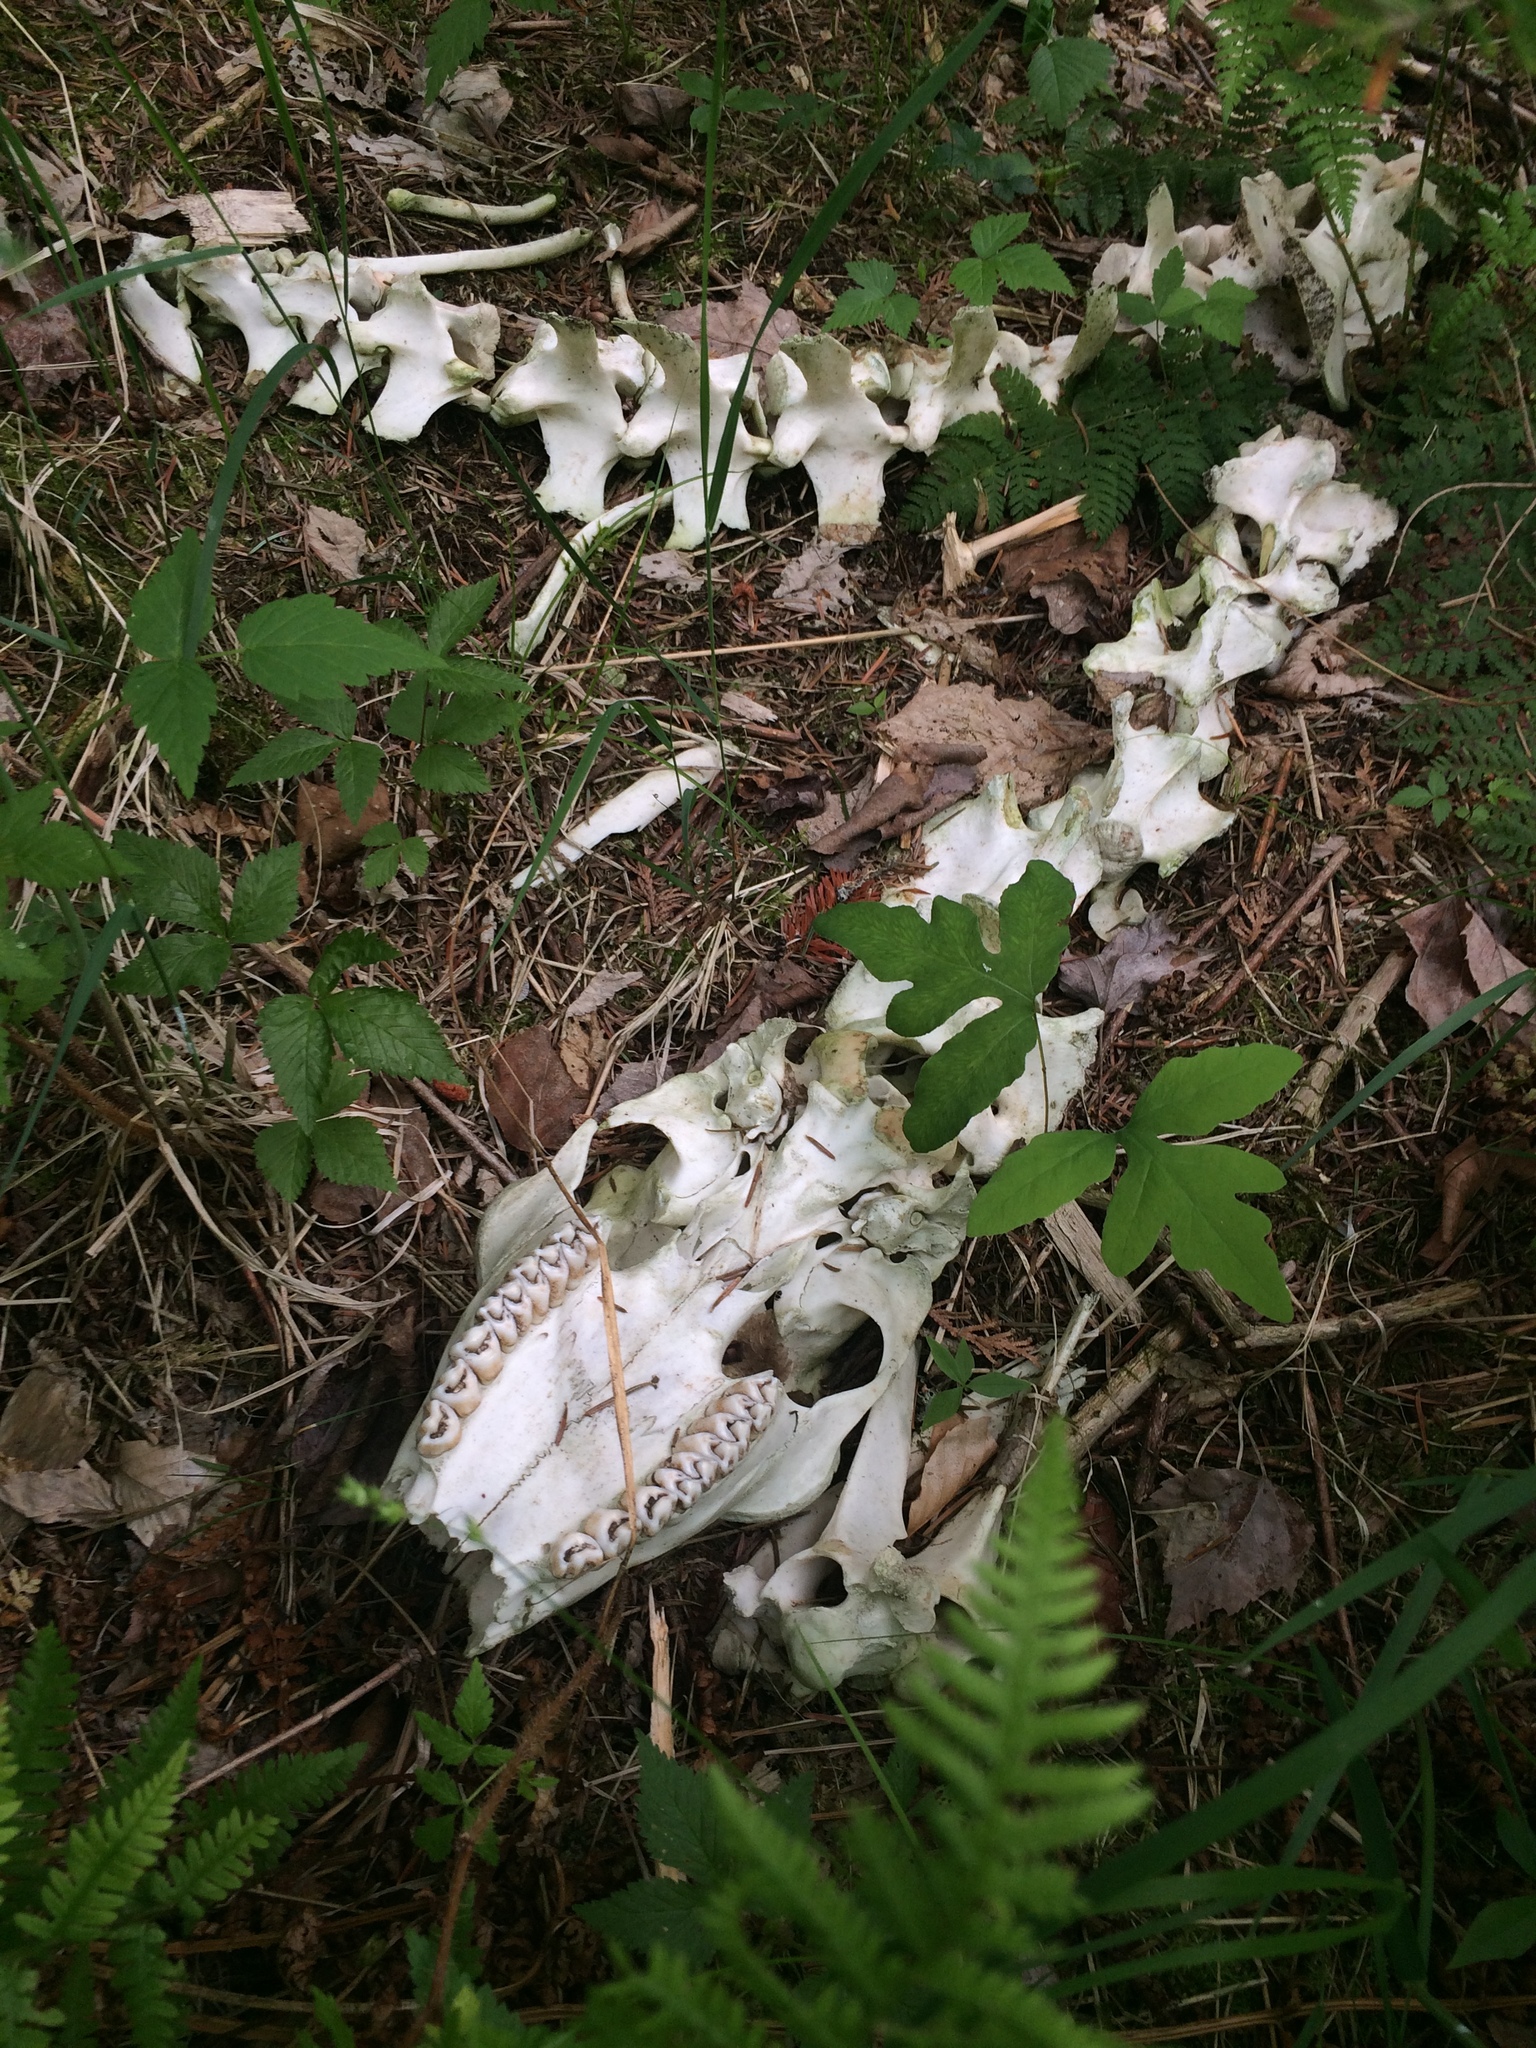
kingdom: Animalia
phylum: Chordata
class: Mammalia
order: Artiodactyla
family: Cervidae
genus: Odocoileus
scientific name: Odocoileus virginianus
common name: White-tailed deer
